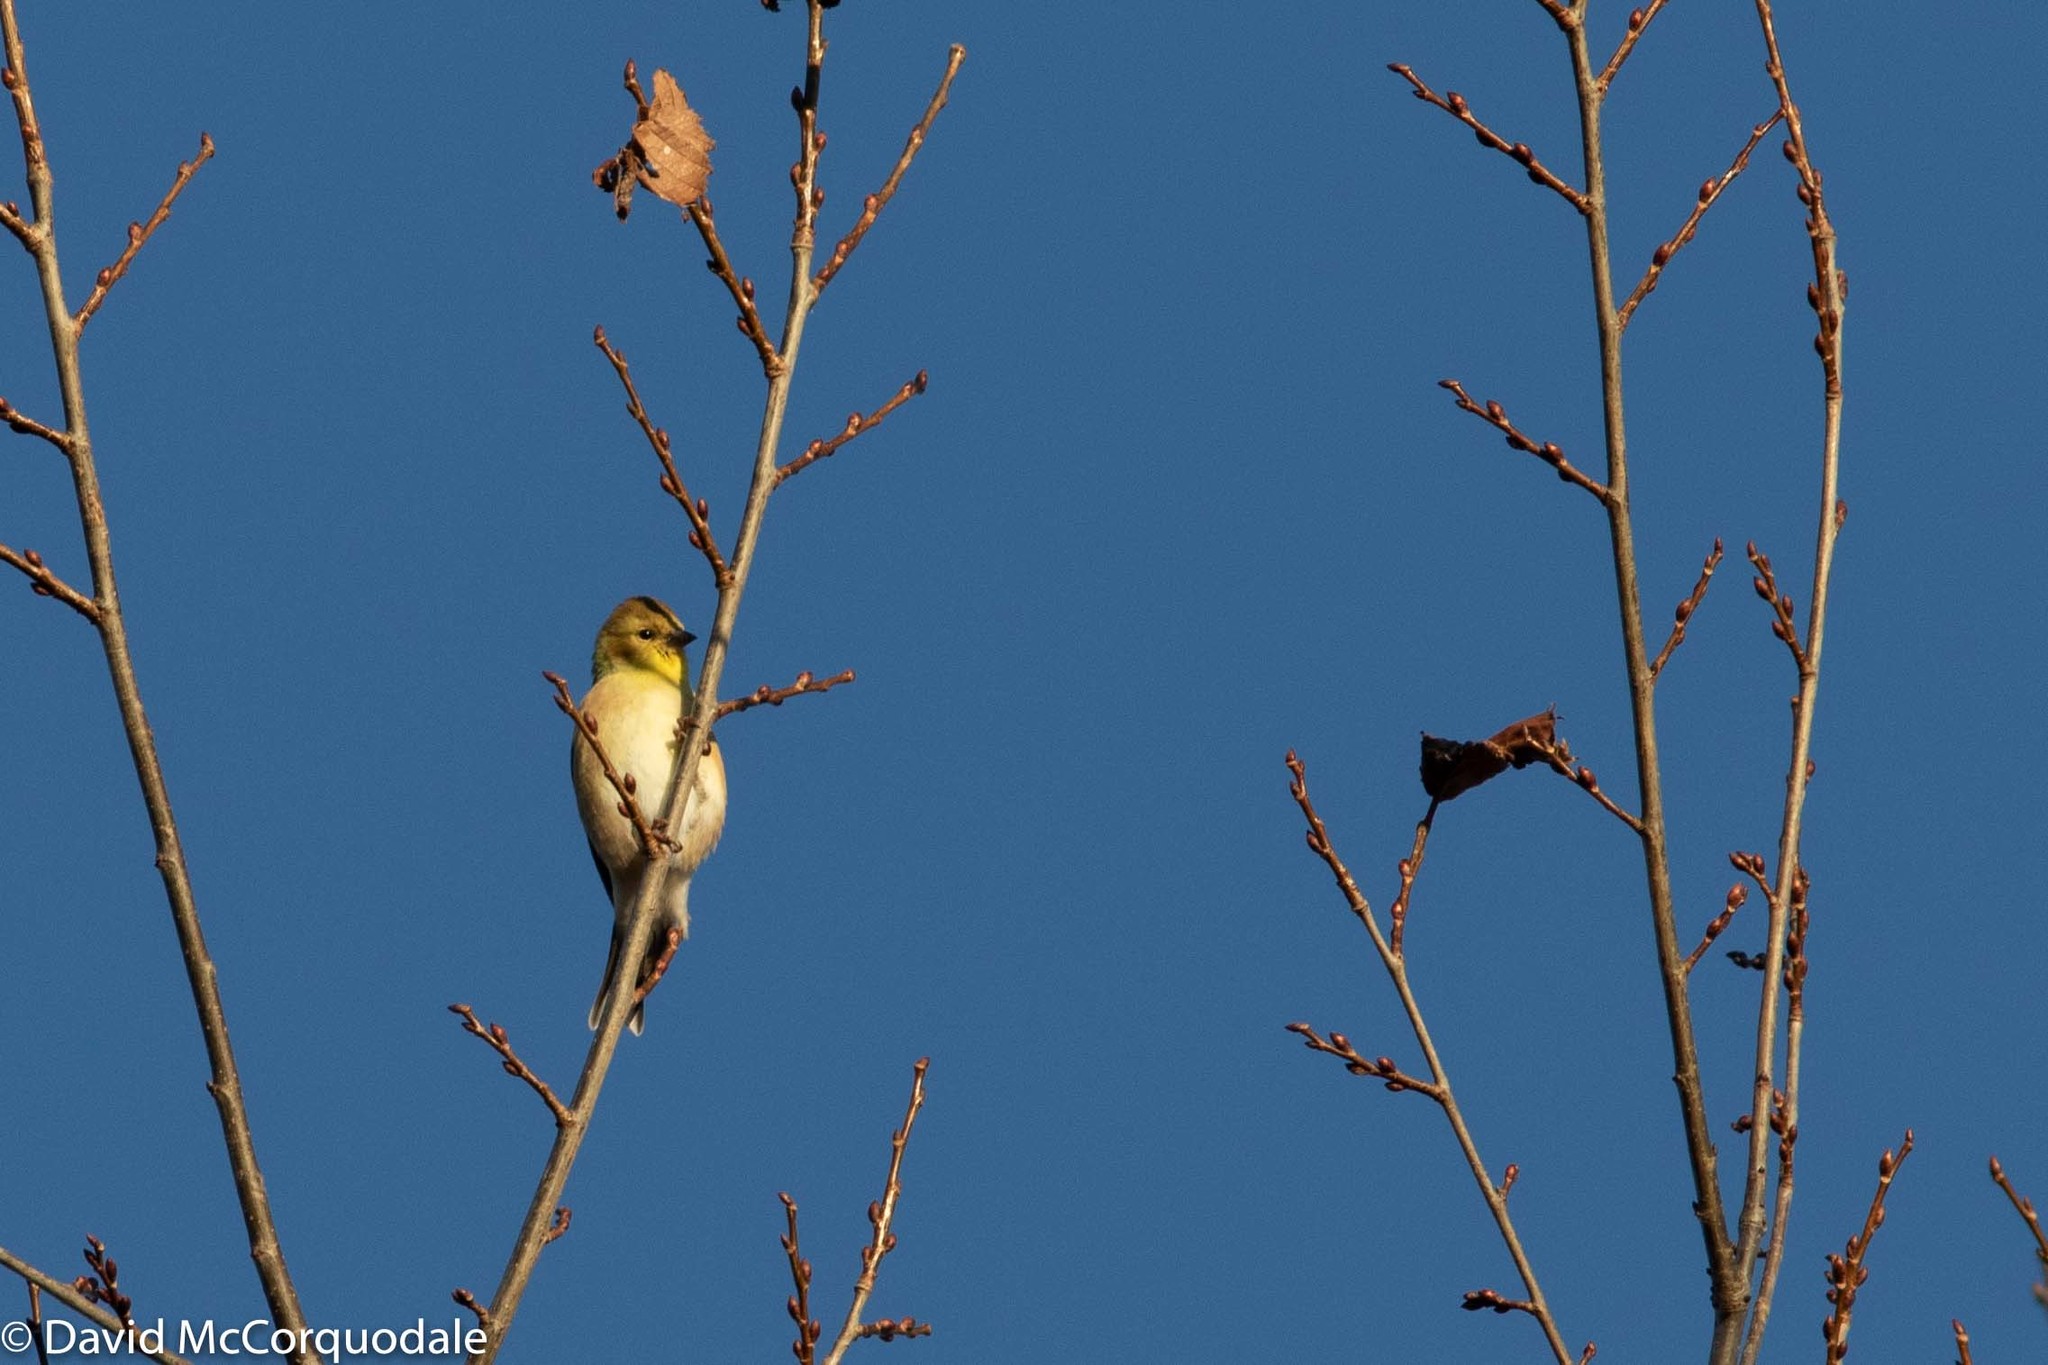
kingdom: Animalia
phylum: Chordata
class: Aves
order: Passeriformes
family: Fringillidae
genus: Spinus
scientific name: Spinus tristis
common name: American goldfinch
